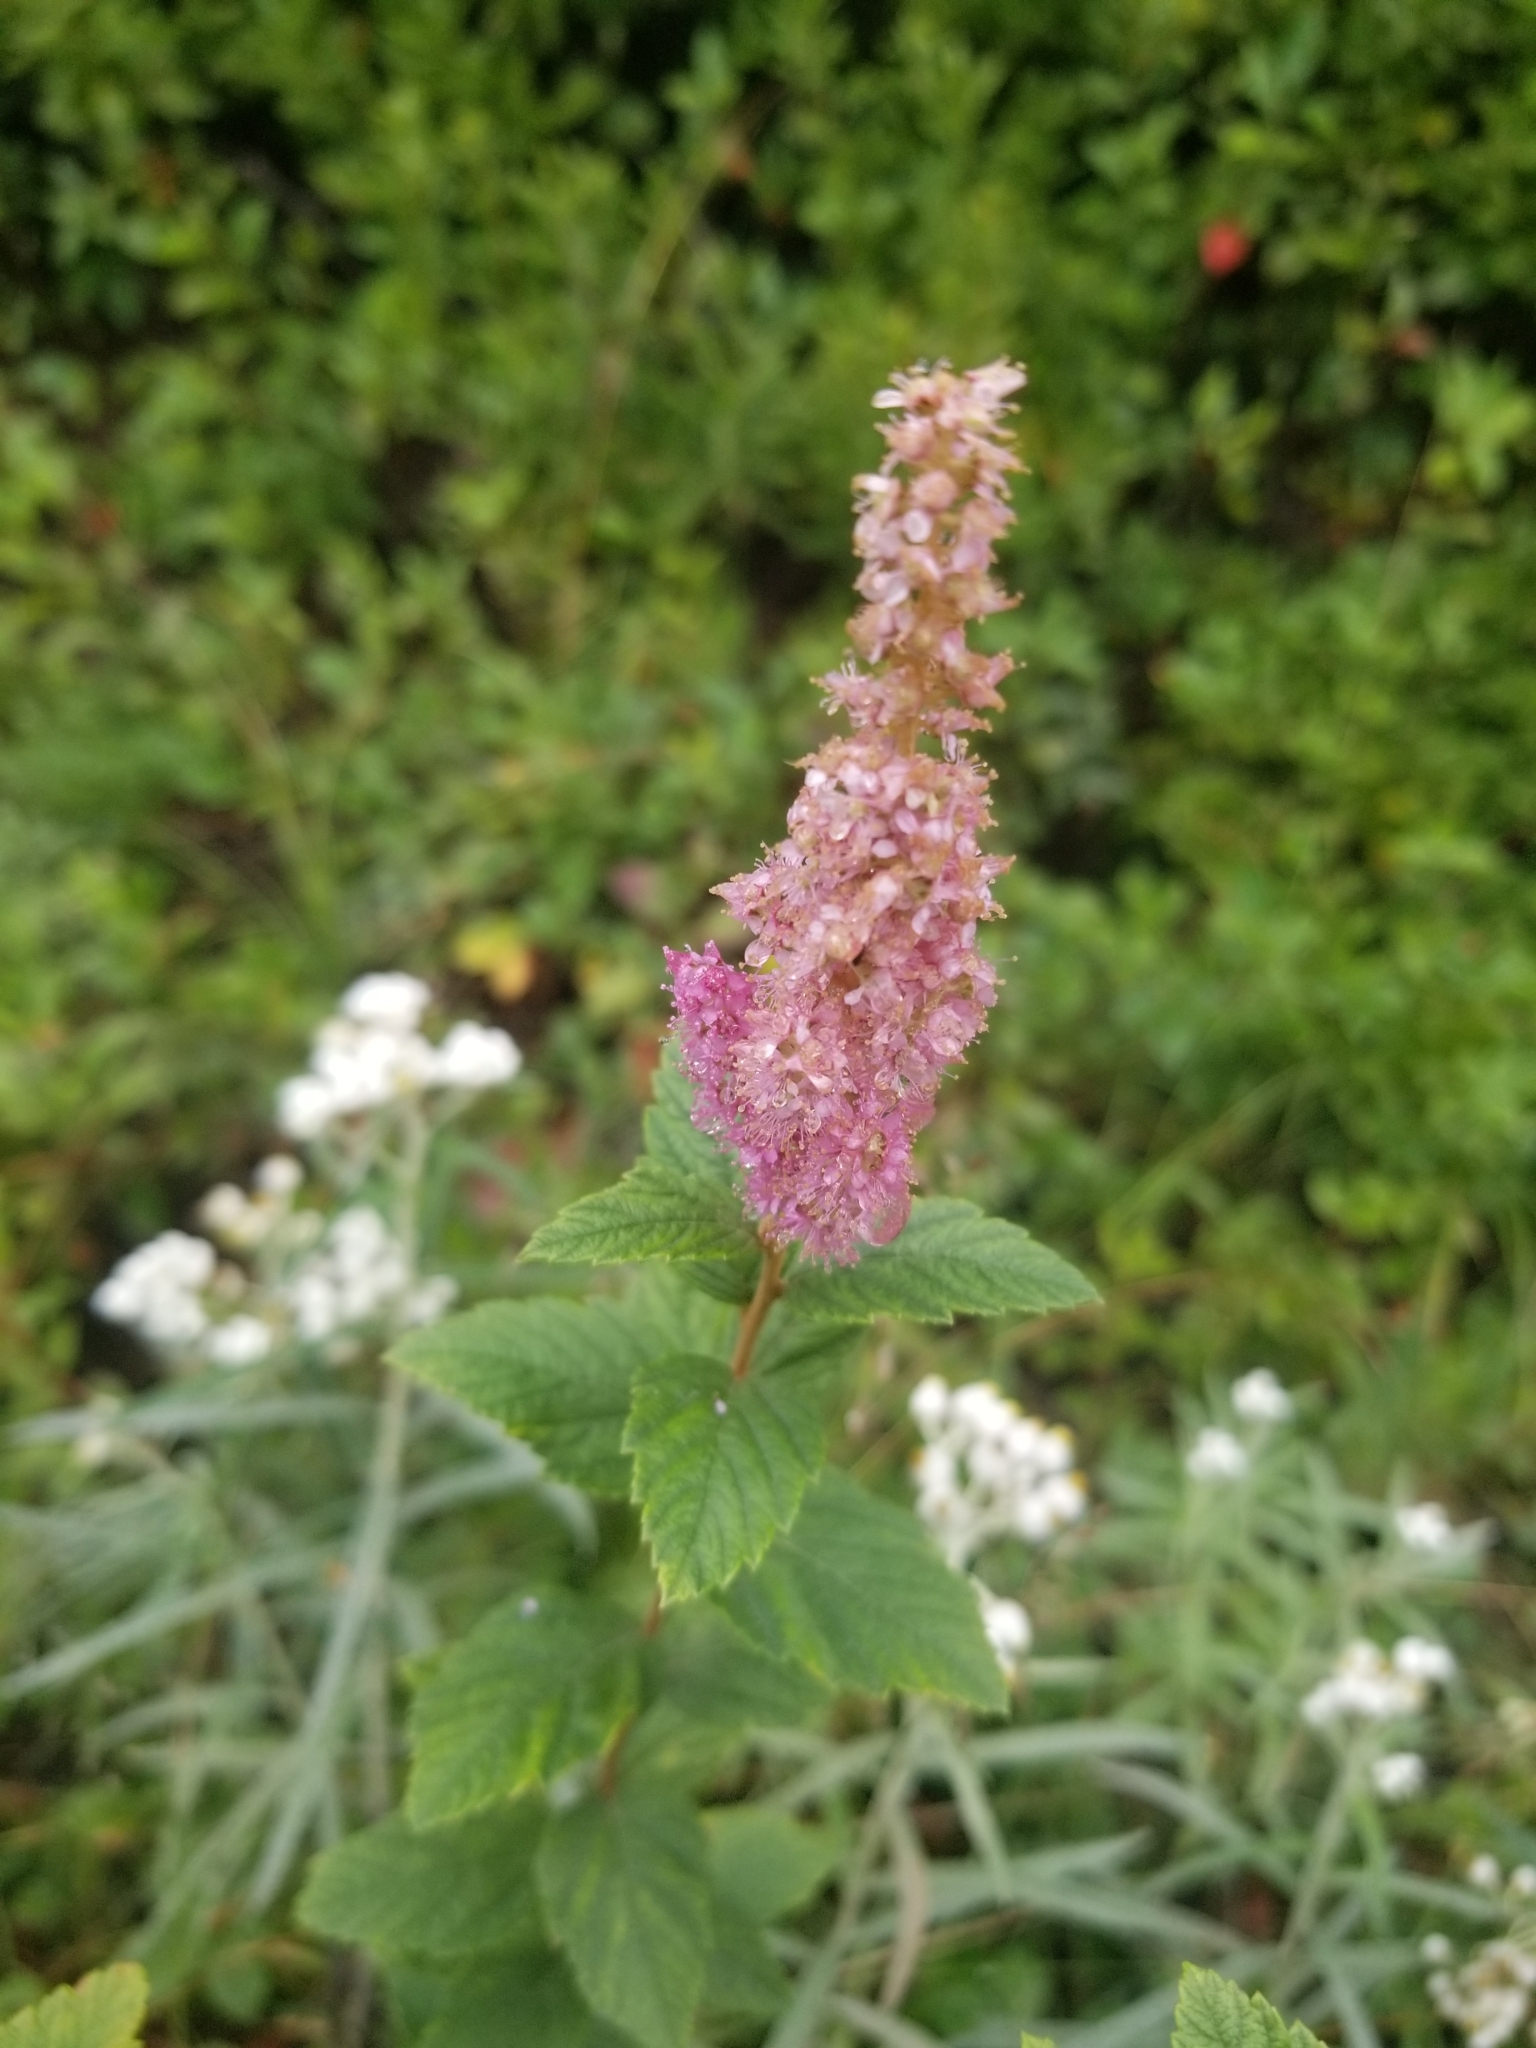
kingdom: Plantae
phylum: Tracheophyta
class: Magnoliopsida
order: Rosales
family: Rosaceae
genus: Spiraea
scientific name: Spiraea tomentosa
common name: Hardhack
